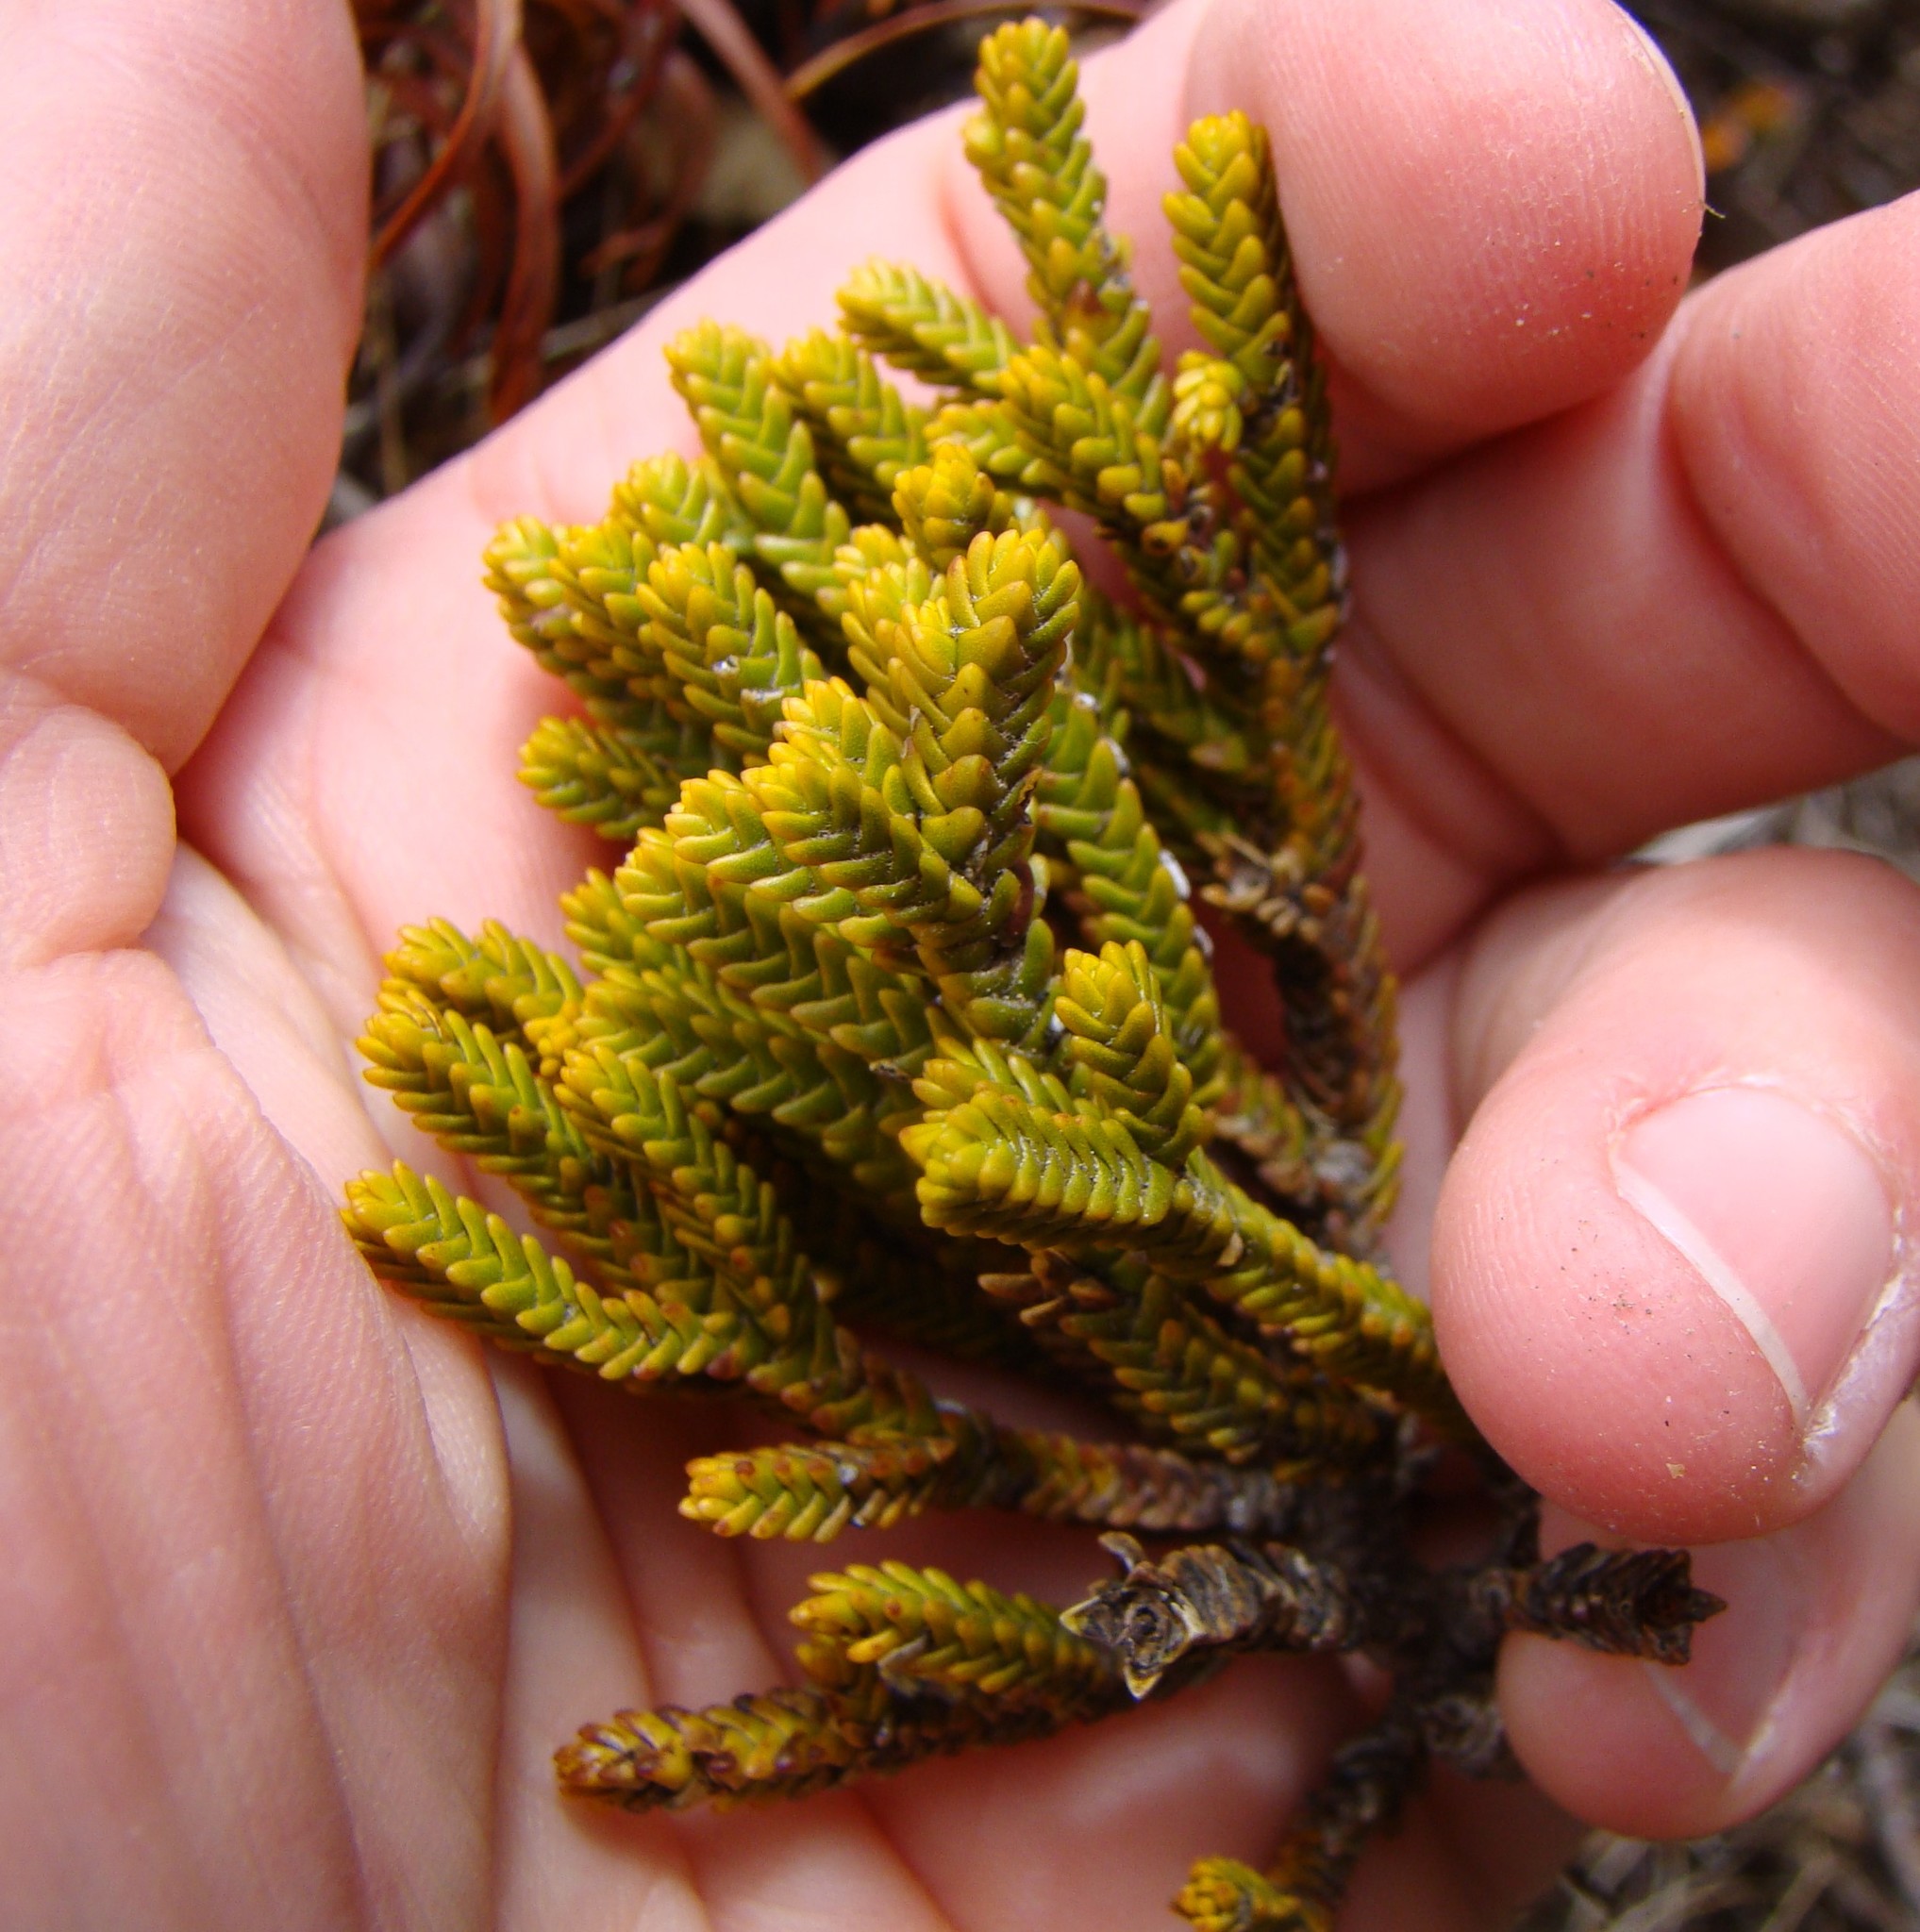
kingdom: Plantae
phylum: Tracheophyta
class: Magnoliopsida
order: Lamiales
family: Plantaginaceae
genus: Veronica
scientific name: Veronica tetragona
